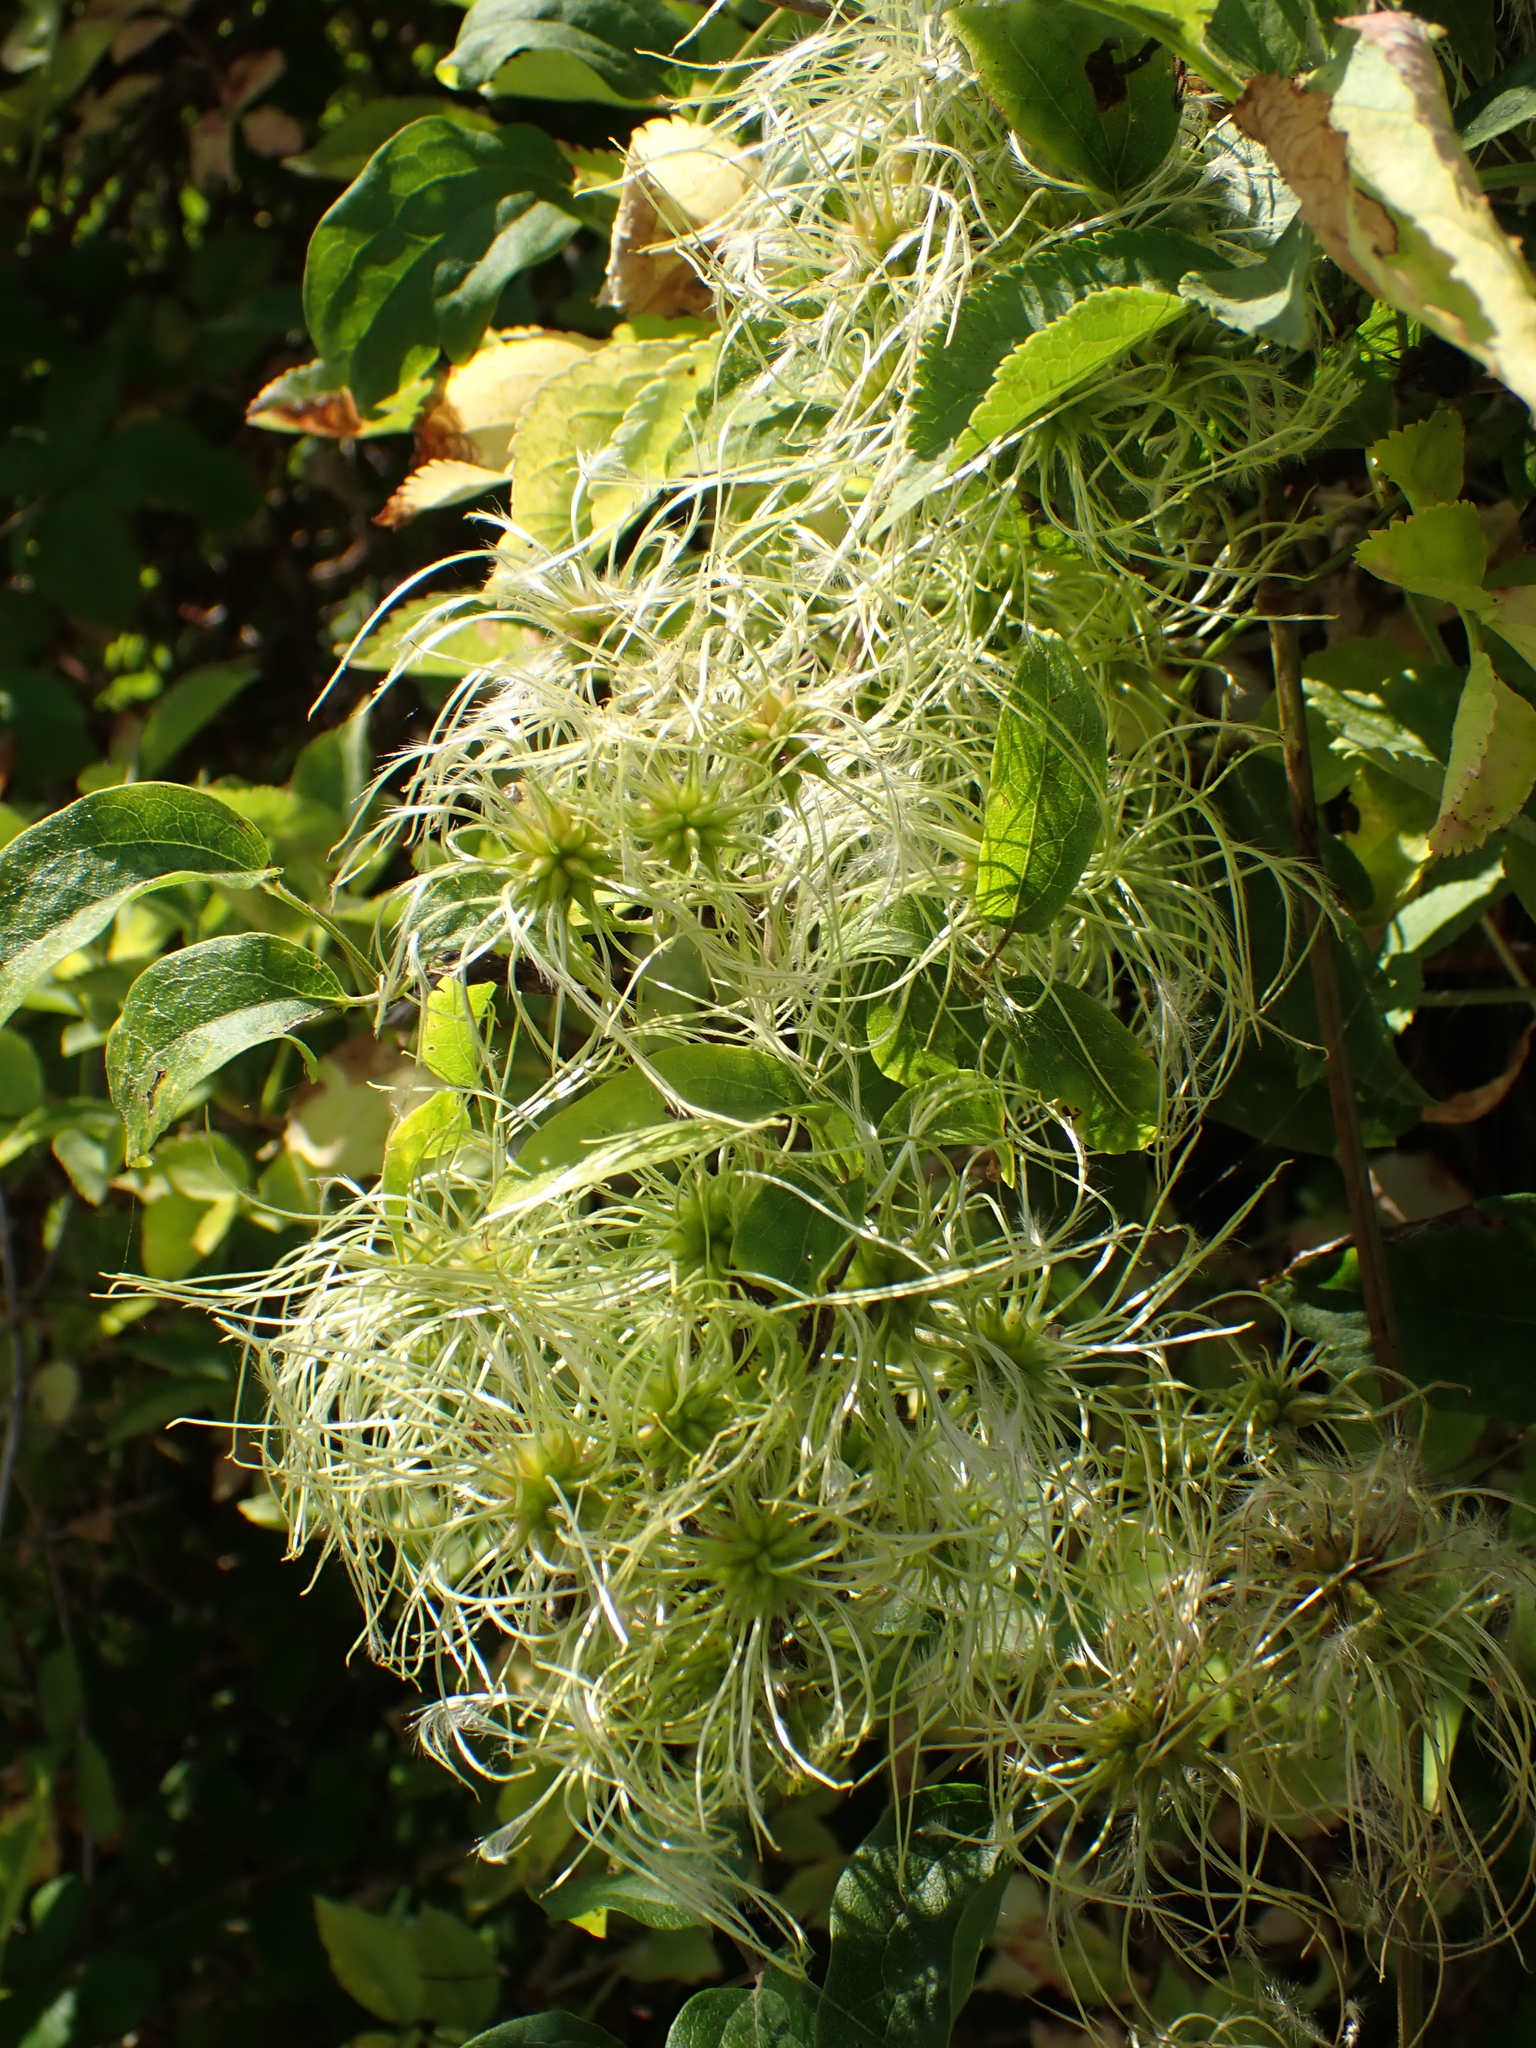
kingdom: Plantae
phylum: Tracheophyta
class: Magnoliopsida
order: Ranunculales
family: Ranunculaceae
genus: Clematis
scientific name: Clematis vitalba
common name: Evergreen clematis
